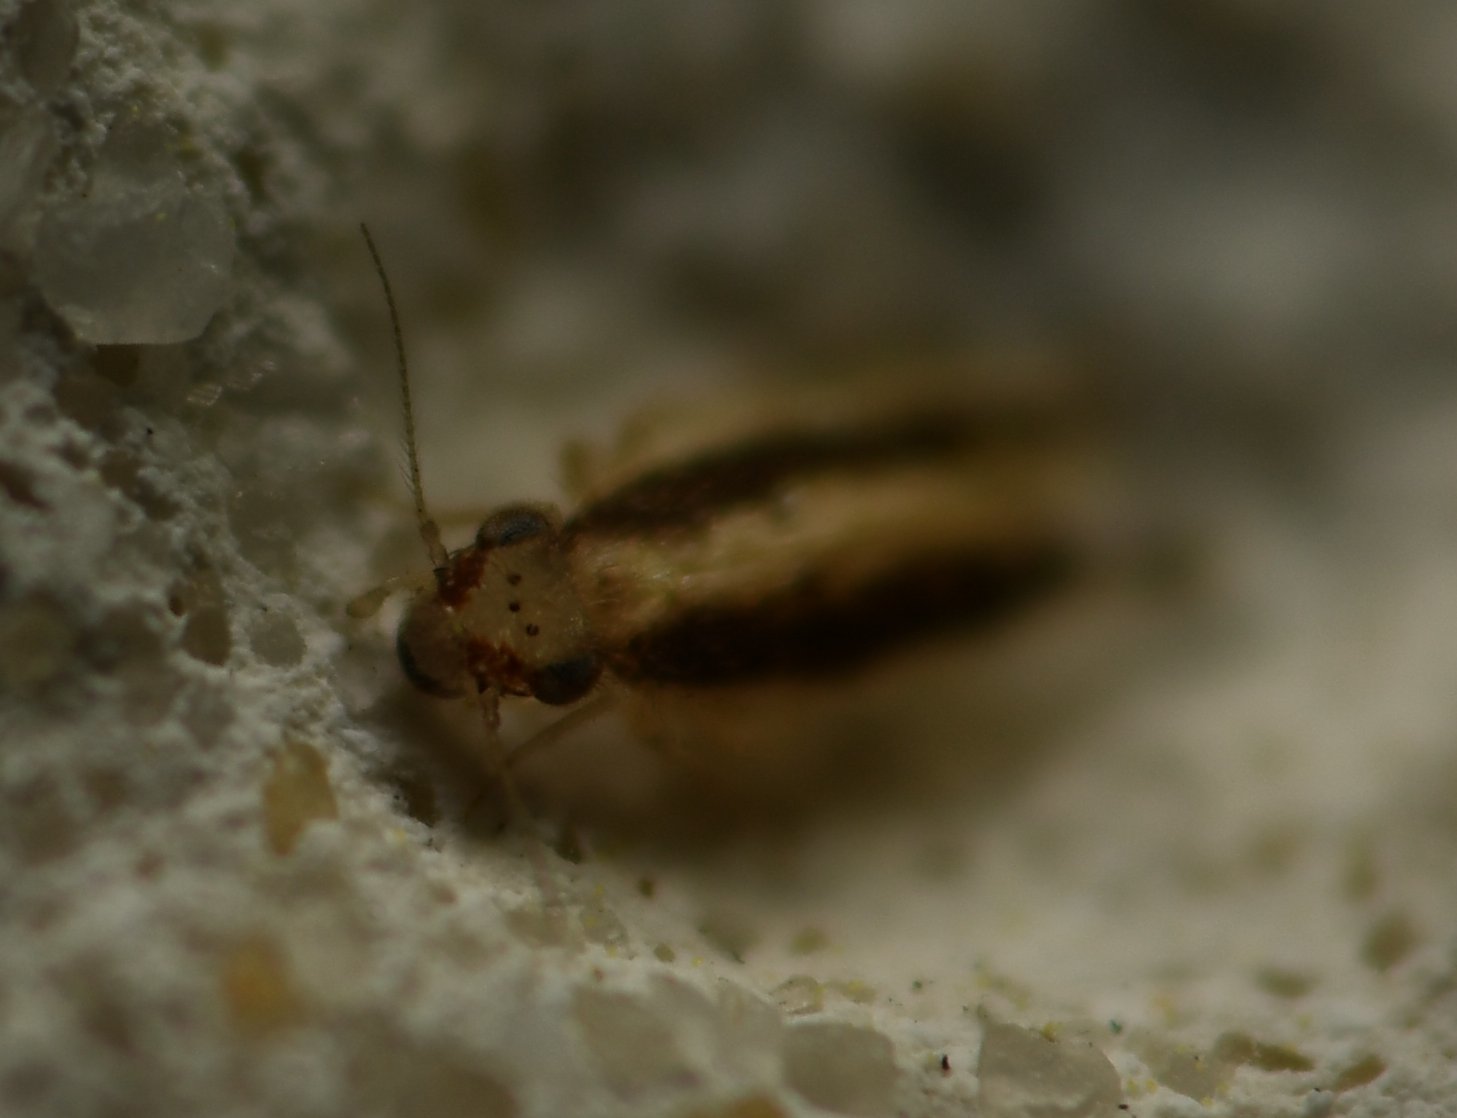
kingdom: Animalia
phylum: Arthropoda
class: Insecta
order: Psocodea
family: Lepidopsocidae
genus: Echmepteryx
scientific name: Echmepteryx madagascariensis
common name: Bark lice
